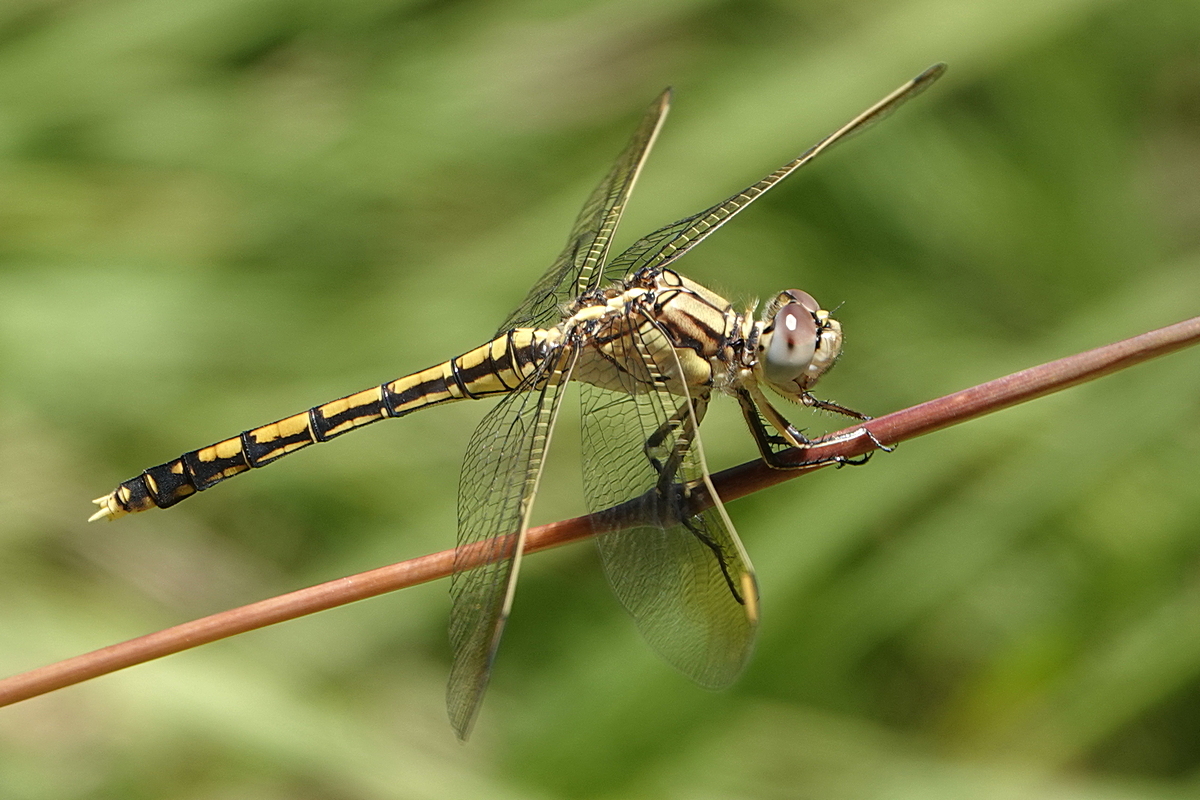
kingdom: Animalia
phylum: Arthropoda
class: Insecta
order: Odonata
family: Libellulidae
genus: Orthetrum
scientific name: Orthetrum caledonicum
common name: Blue skimmer
